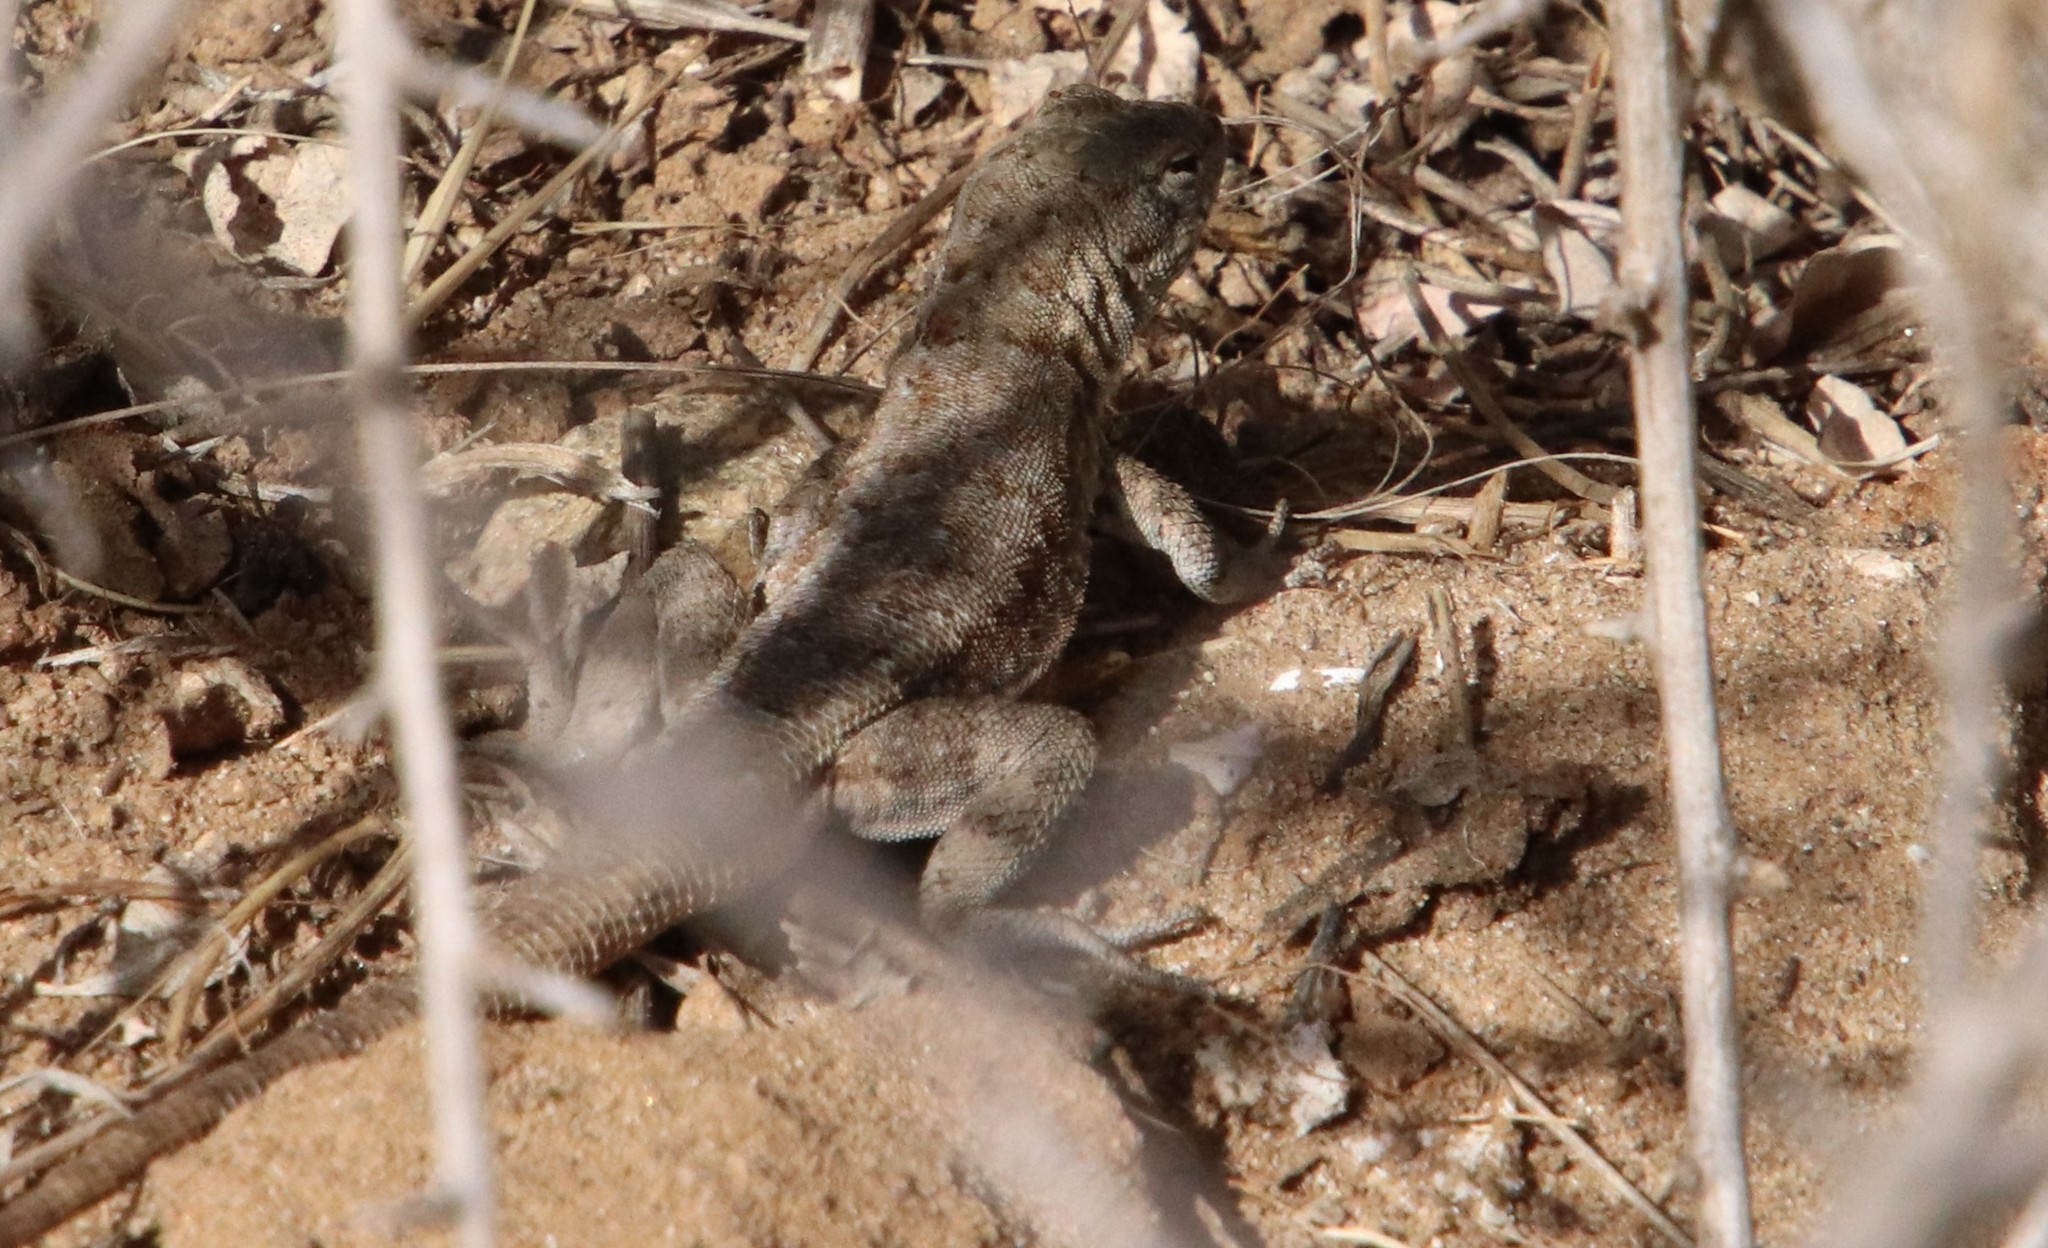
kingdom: Animalia
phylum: Chordata
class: Squamata
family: Phrynosomatidae
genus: Uta
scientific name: Uta stansburiana
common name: Side-blotched lizard
